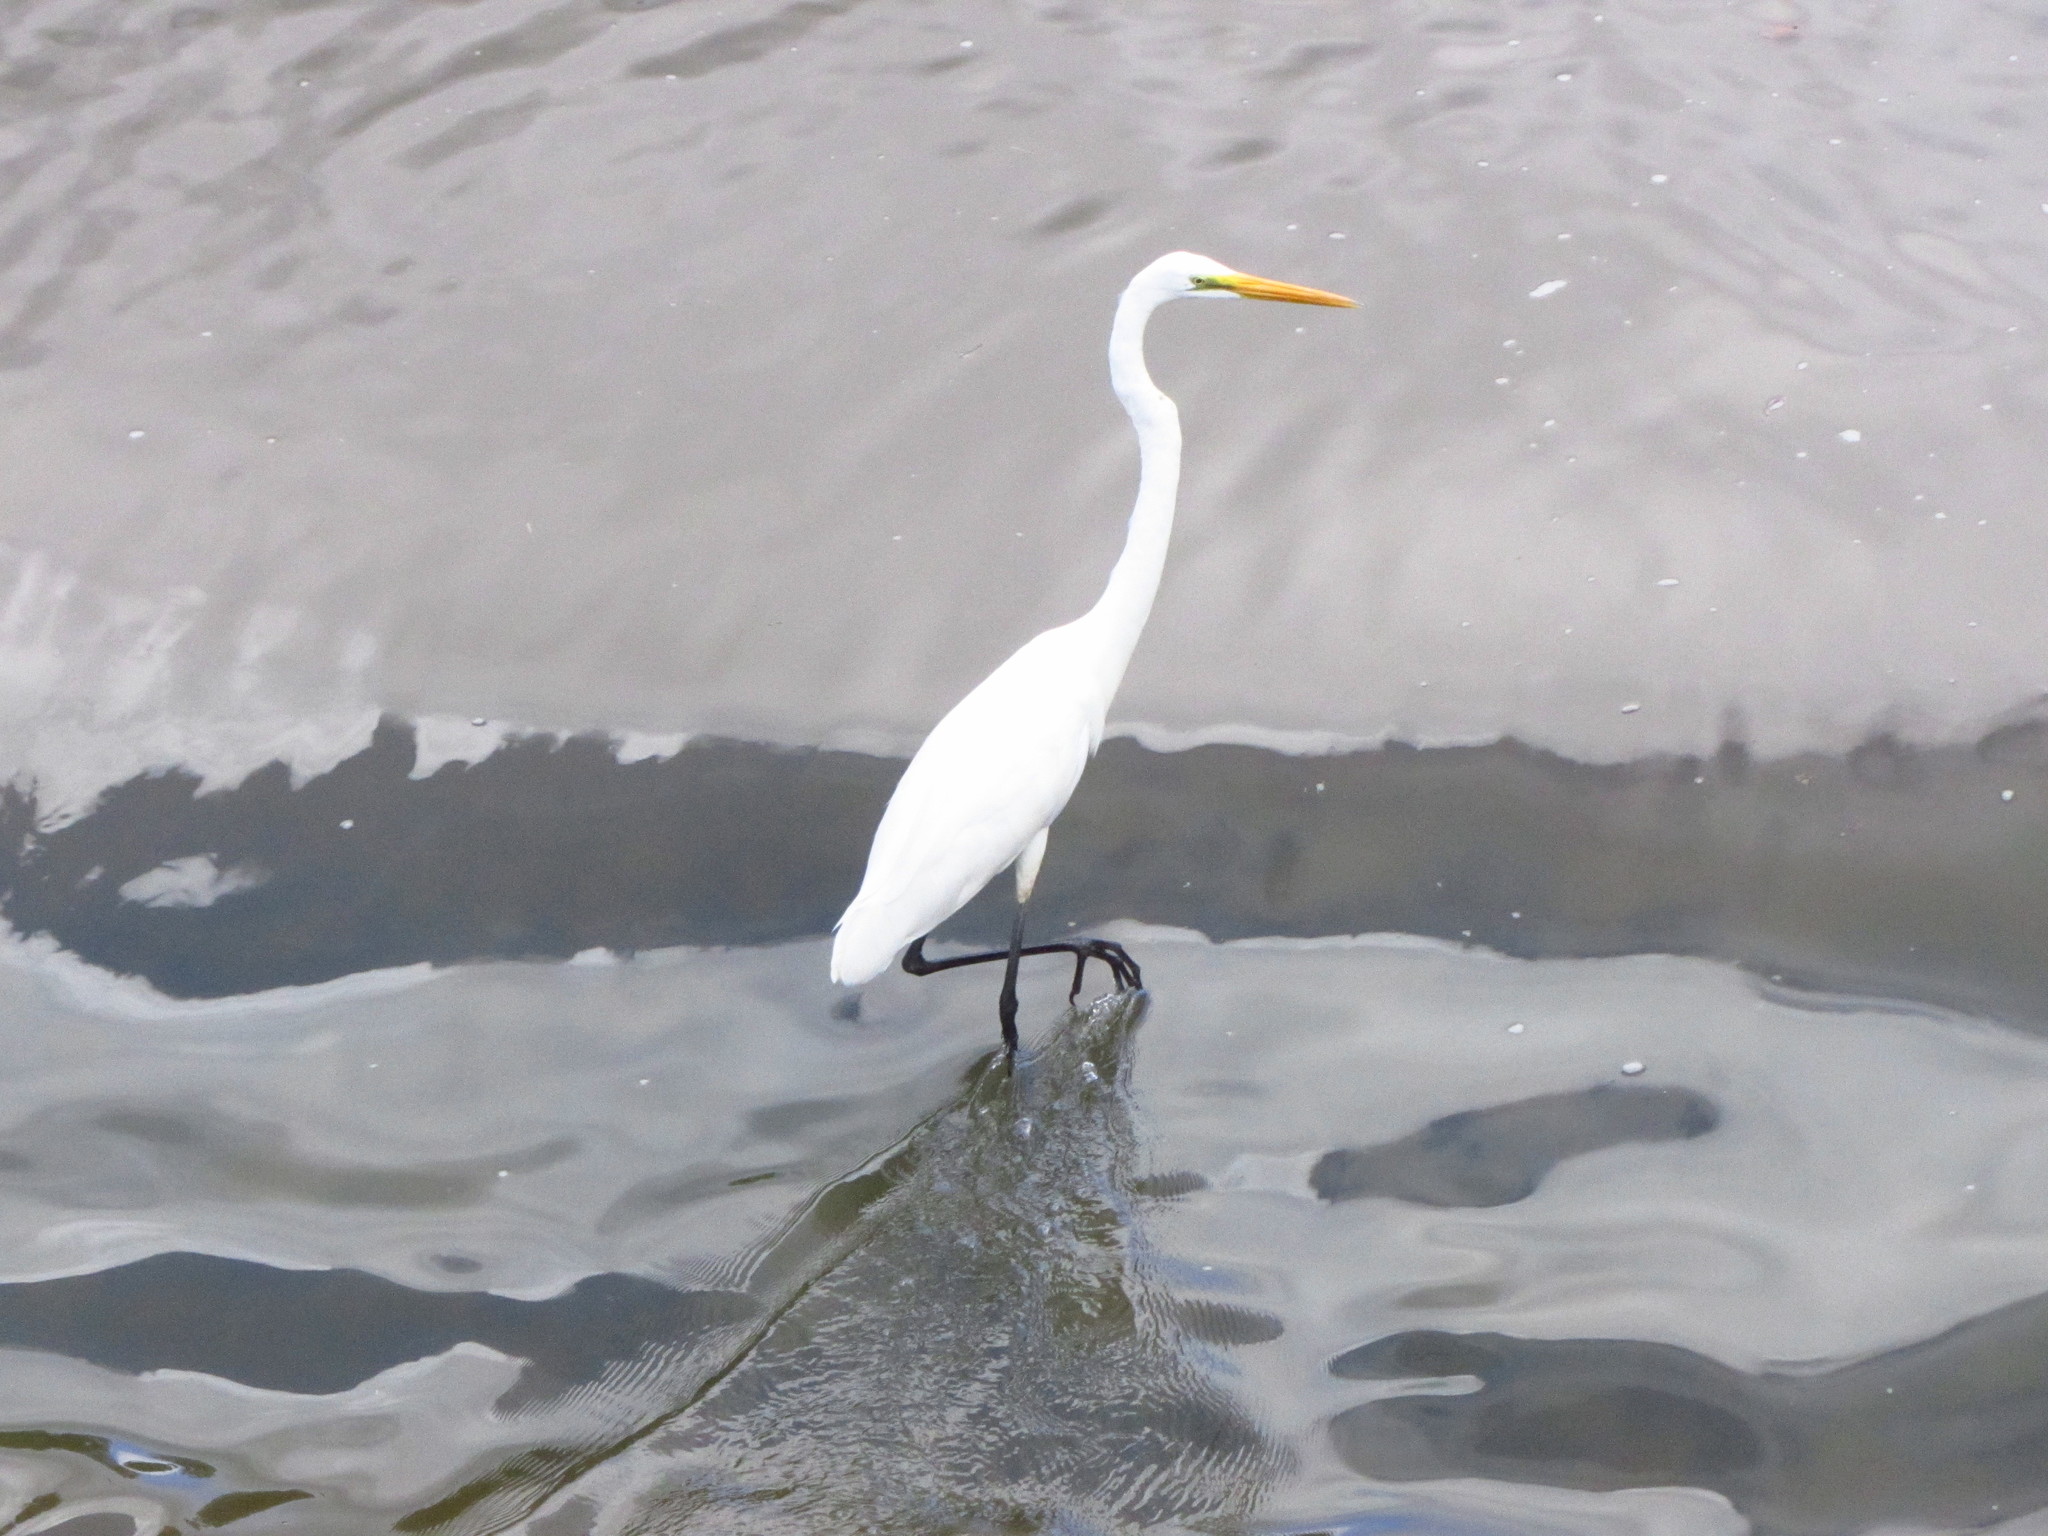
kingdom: Animalia
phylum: Chordata
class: Aves
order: Pelecaniformes
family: Ardeidae
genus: Ardea
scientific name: Ardea alba
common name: Great egret
